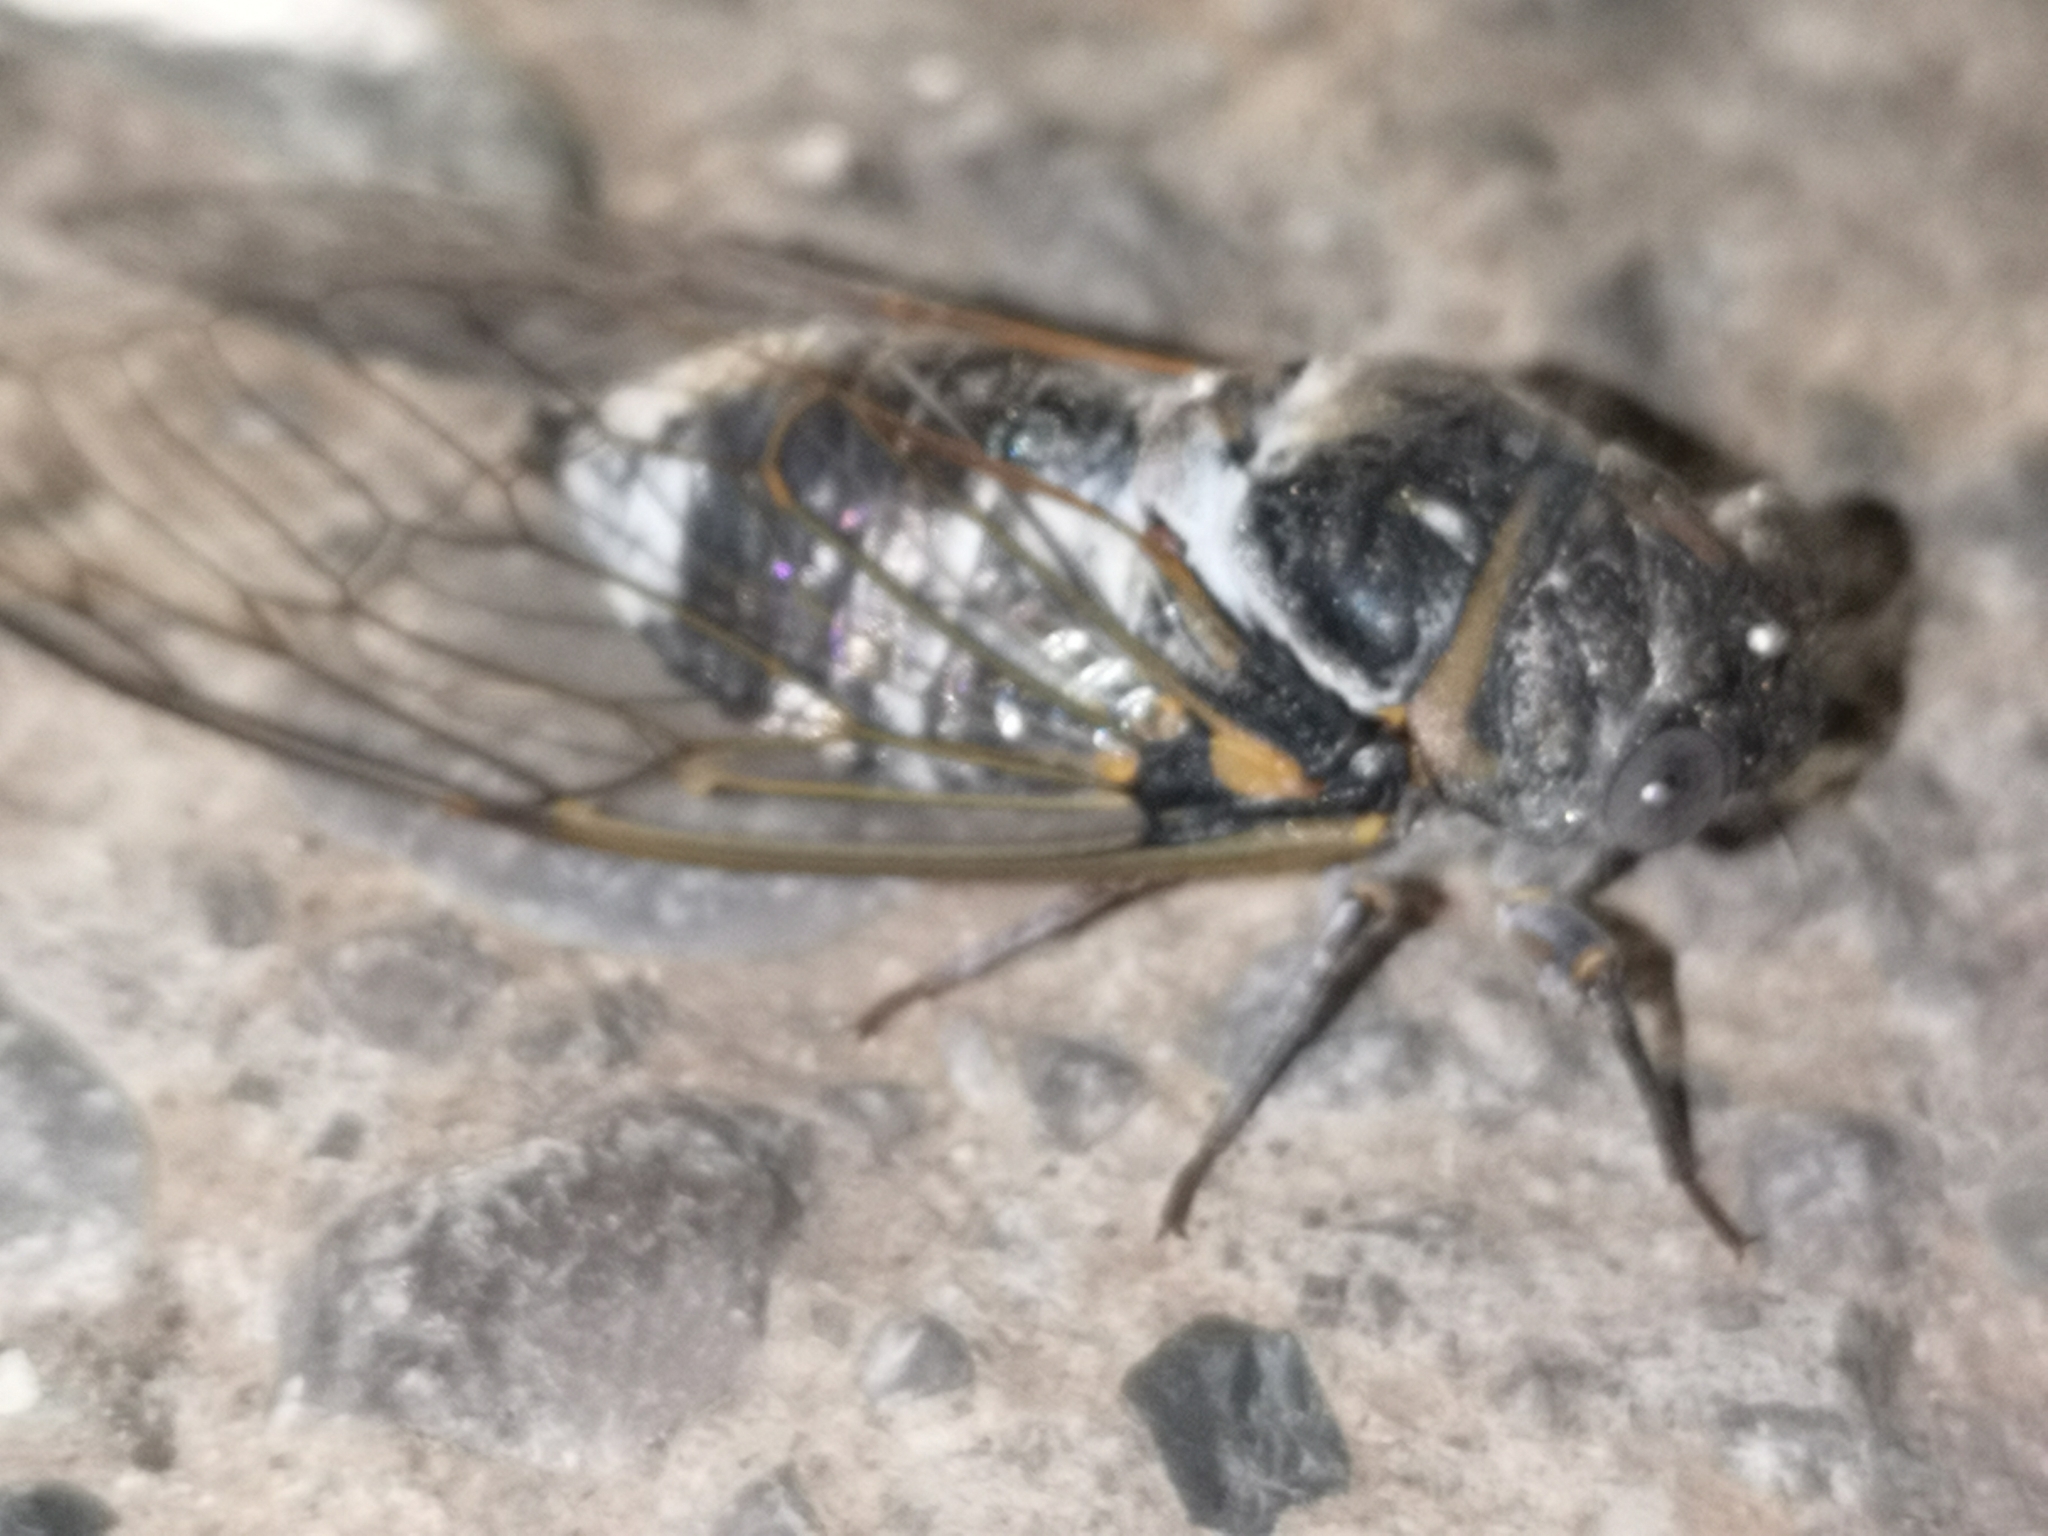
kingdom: Animalia
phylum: Arthropoda
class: Insecta
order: Hemiptera
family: Cicadidae
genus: Lyristes
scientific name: Lyristes plebejus
